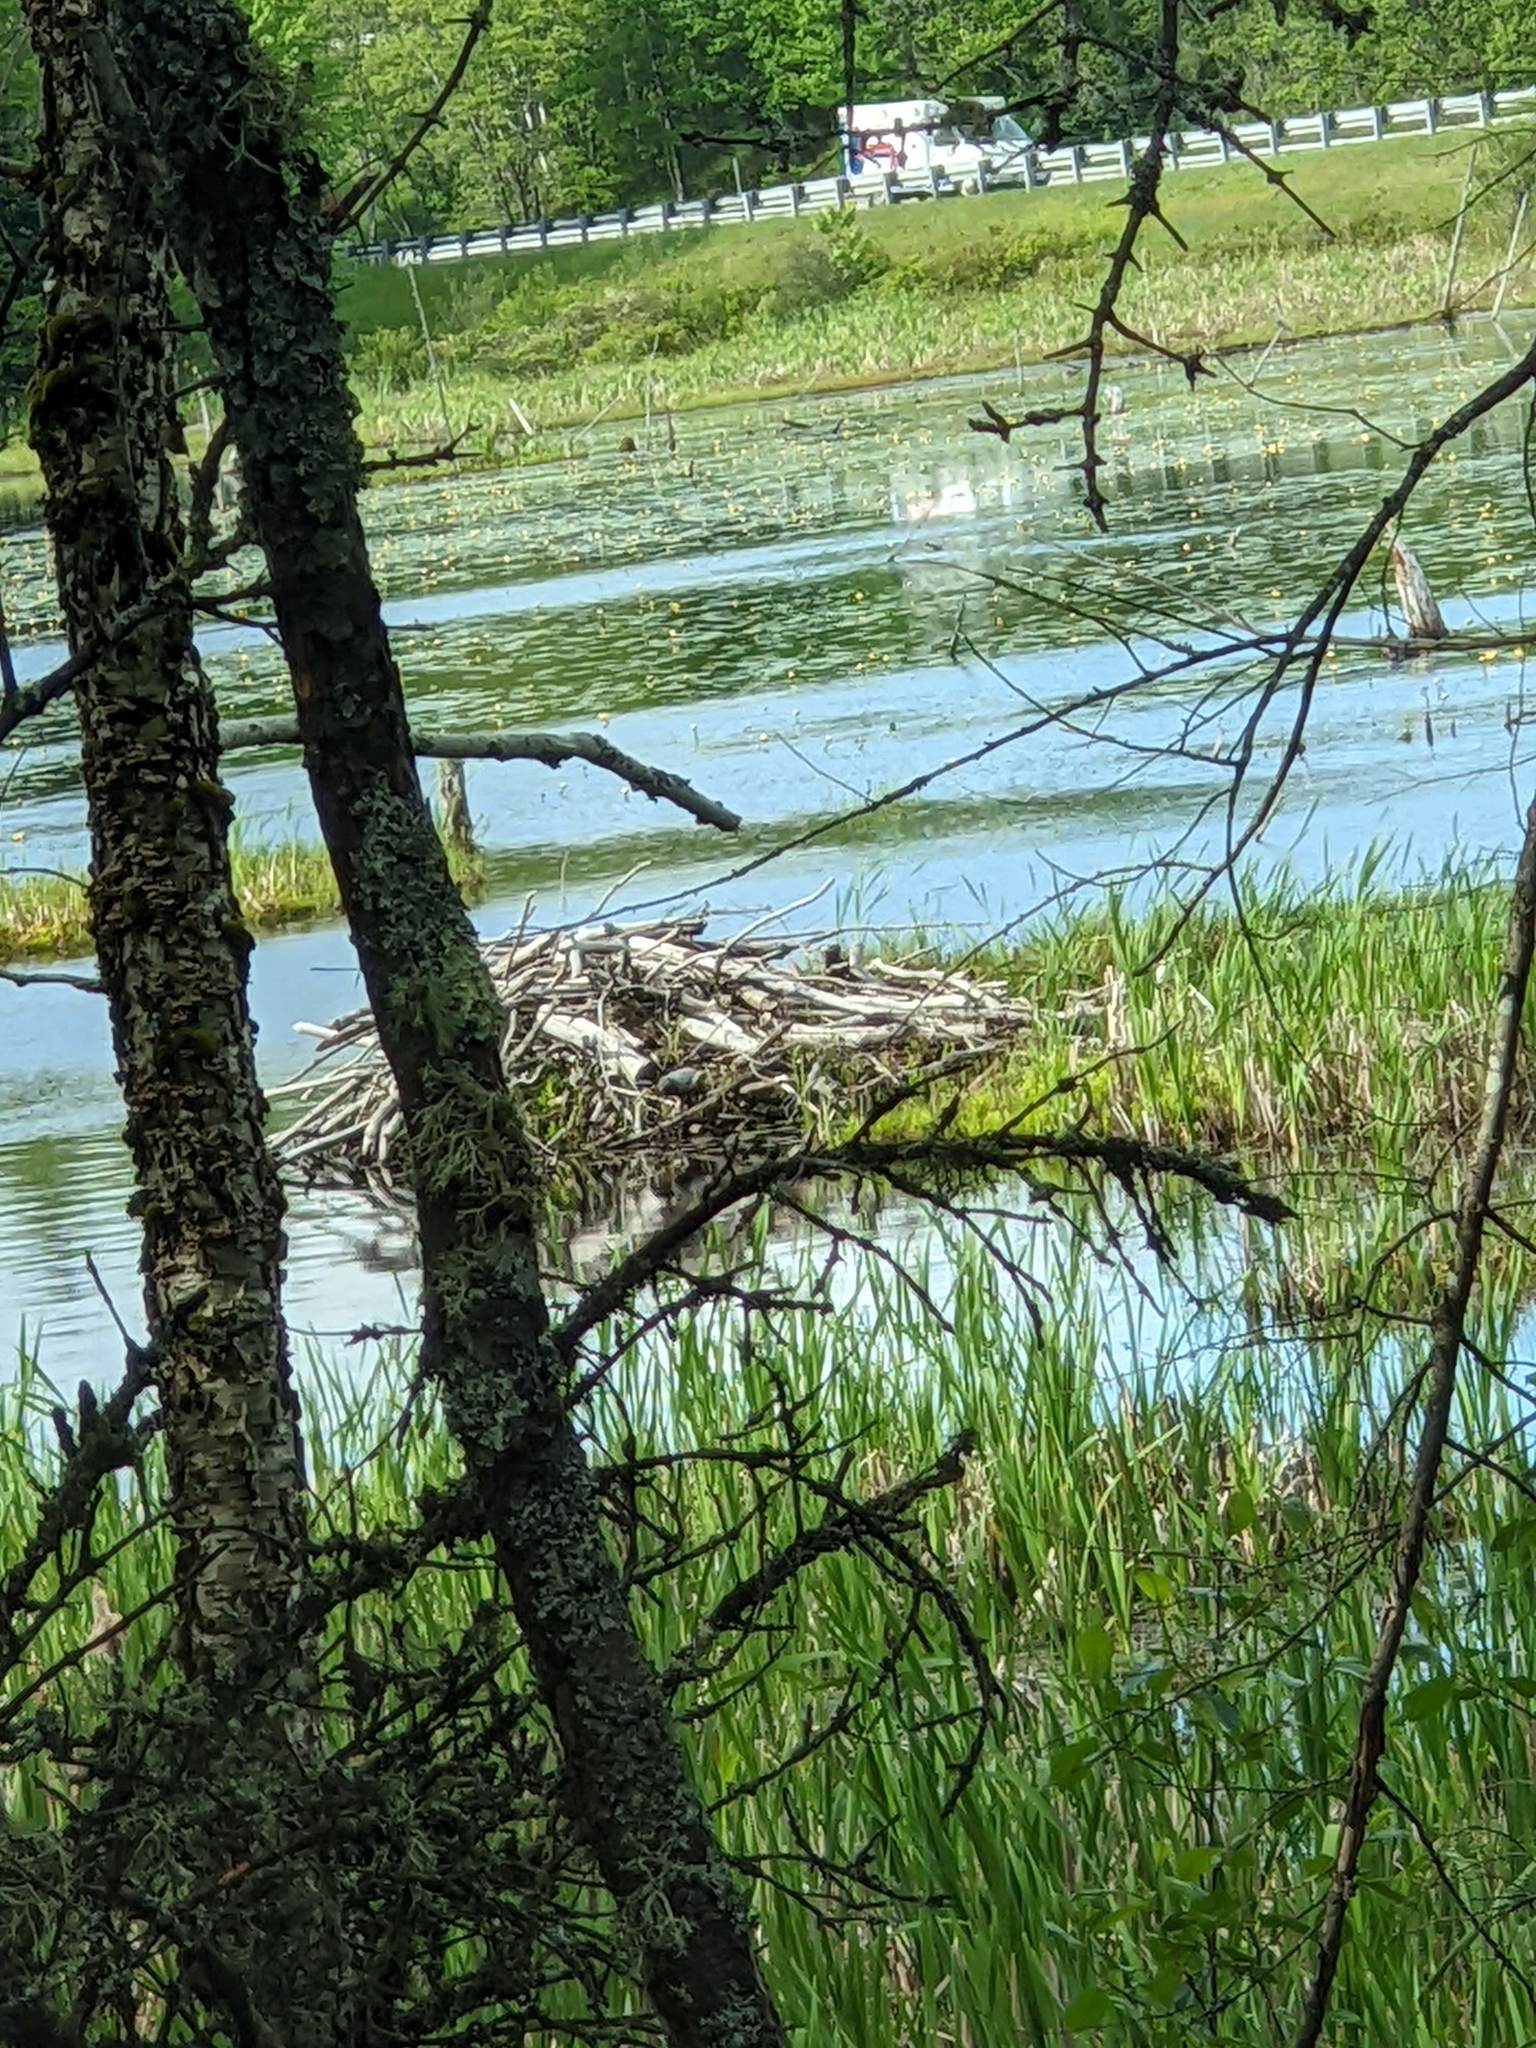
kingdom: Animalia
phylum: Chordata
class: Mammalia
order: Rodentia
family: Castoridae
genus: Castor
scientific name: Castor canadensis
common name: American beaver
